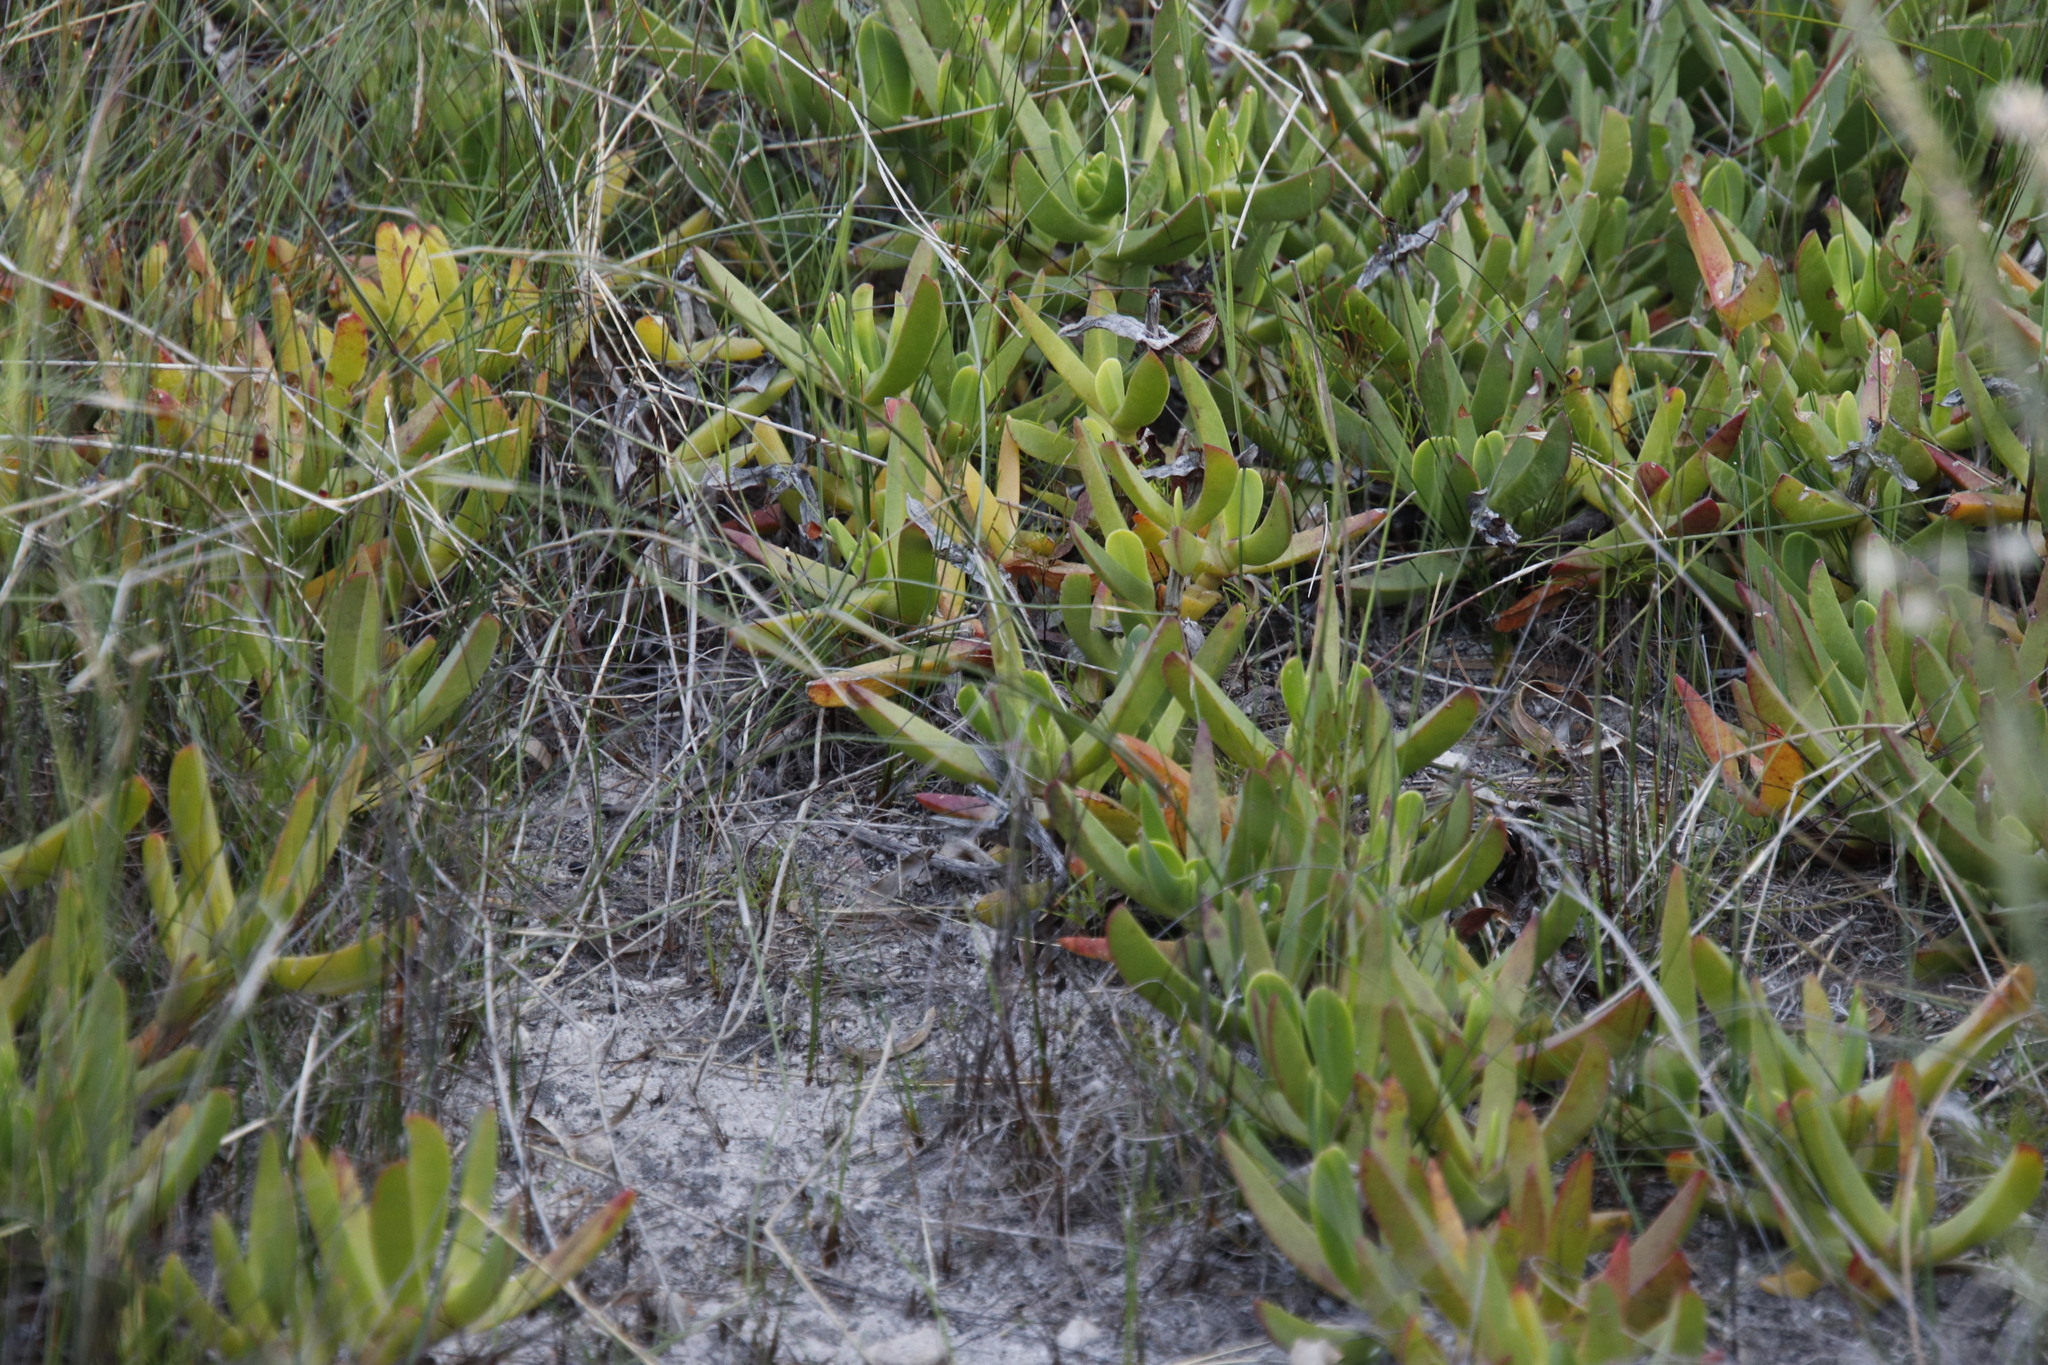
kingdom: Plantae
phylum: Tracheophyta
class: Magnoliopsida
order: Caryophyllales
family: Aizoaceae
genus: Carpobrotus
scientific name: Carpobrotus edulis
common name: Hottentot-fig
